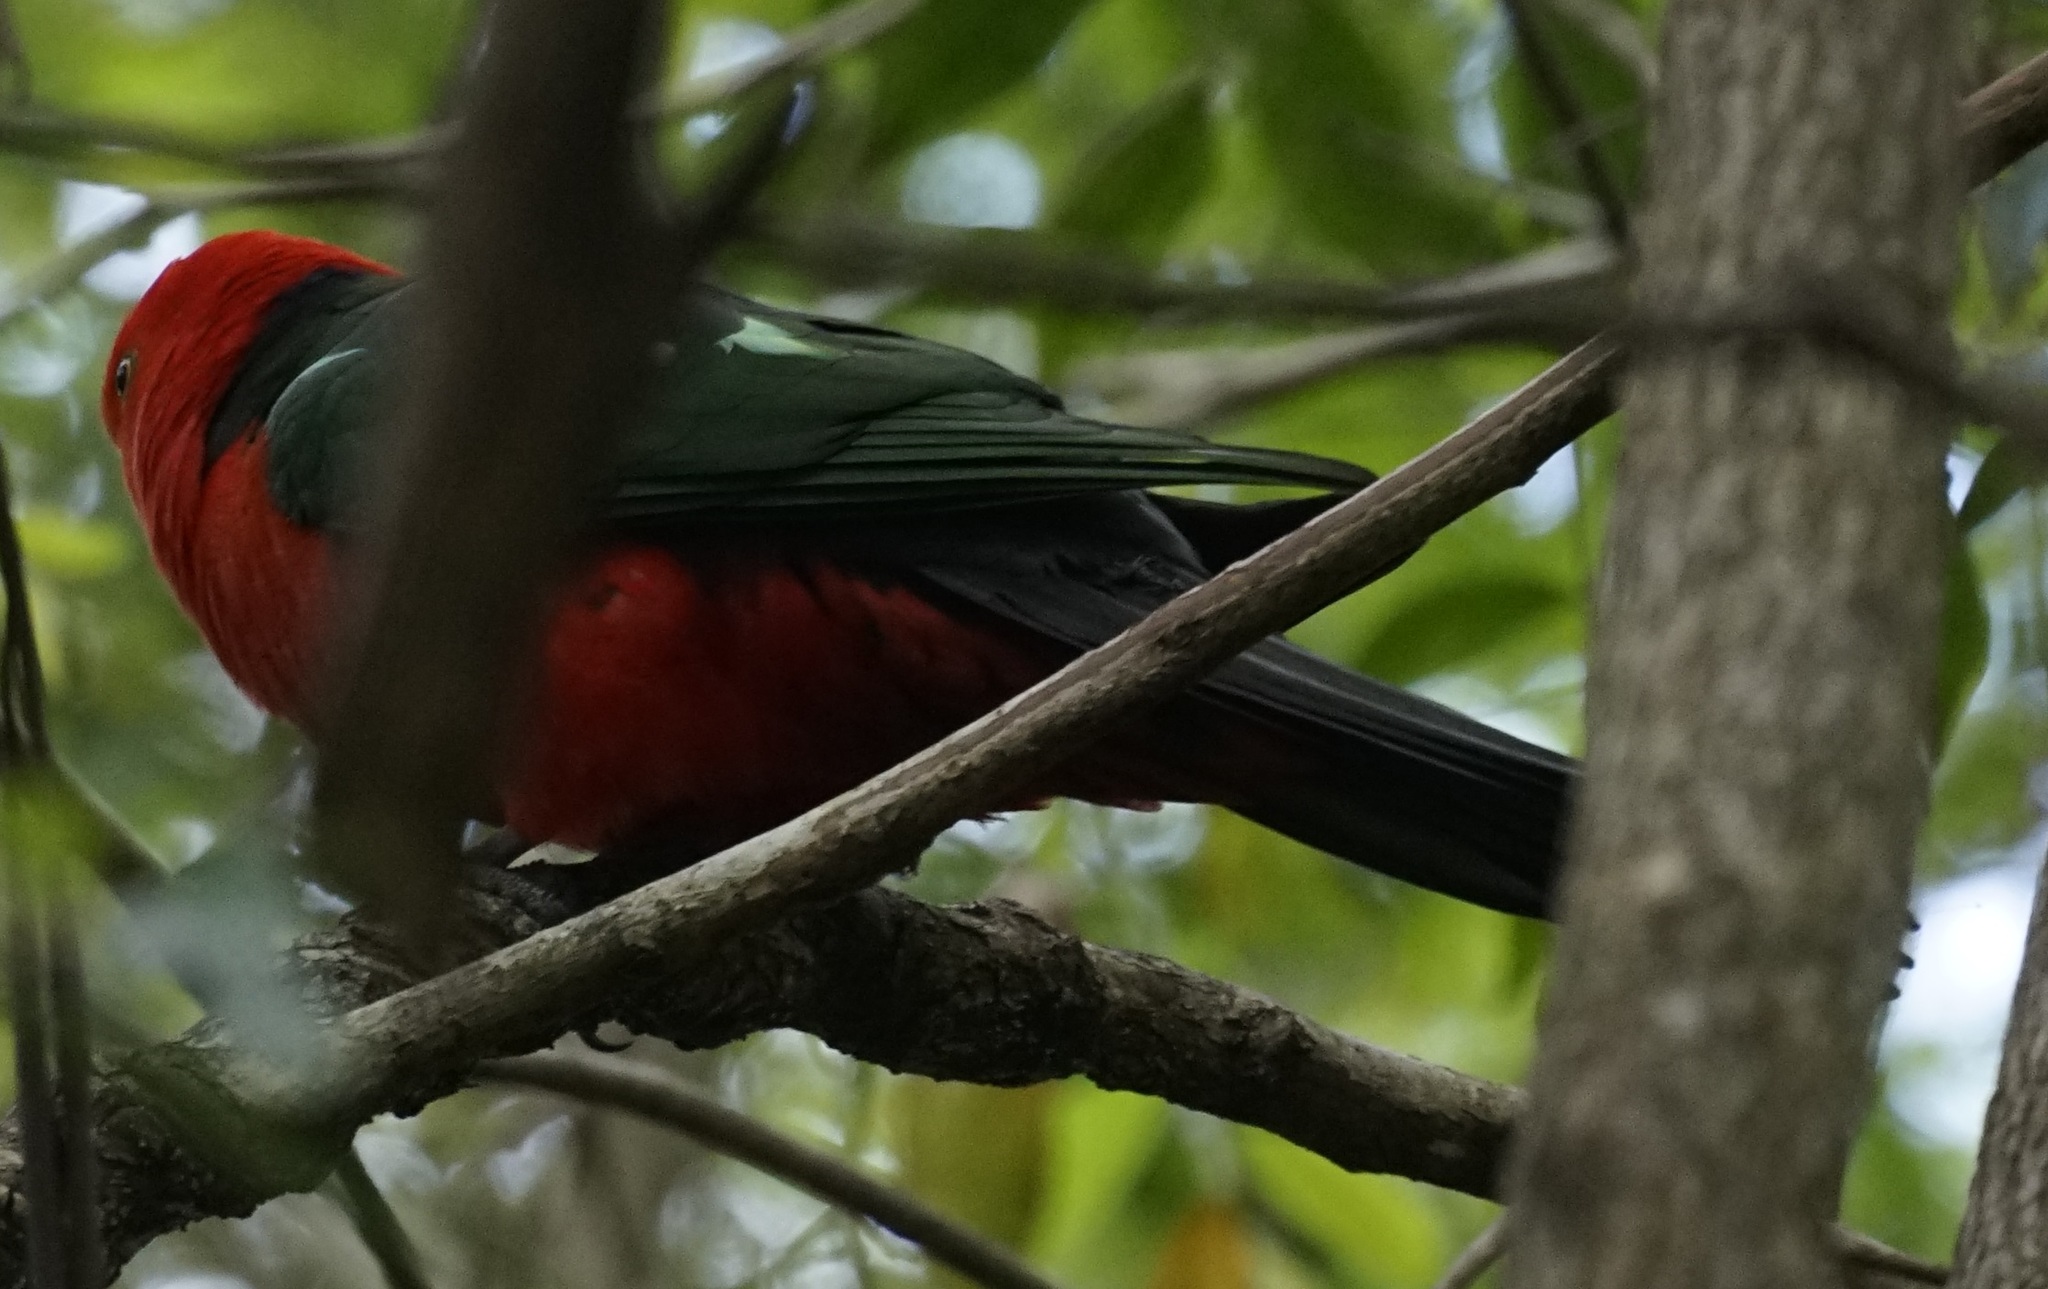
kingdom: Animalia
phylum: Chordata
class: Aves
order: Psittaciformes
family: Psittacidae
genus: Alisterus
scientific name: Alisterus scapularis
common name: Australian king parrot
